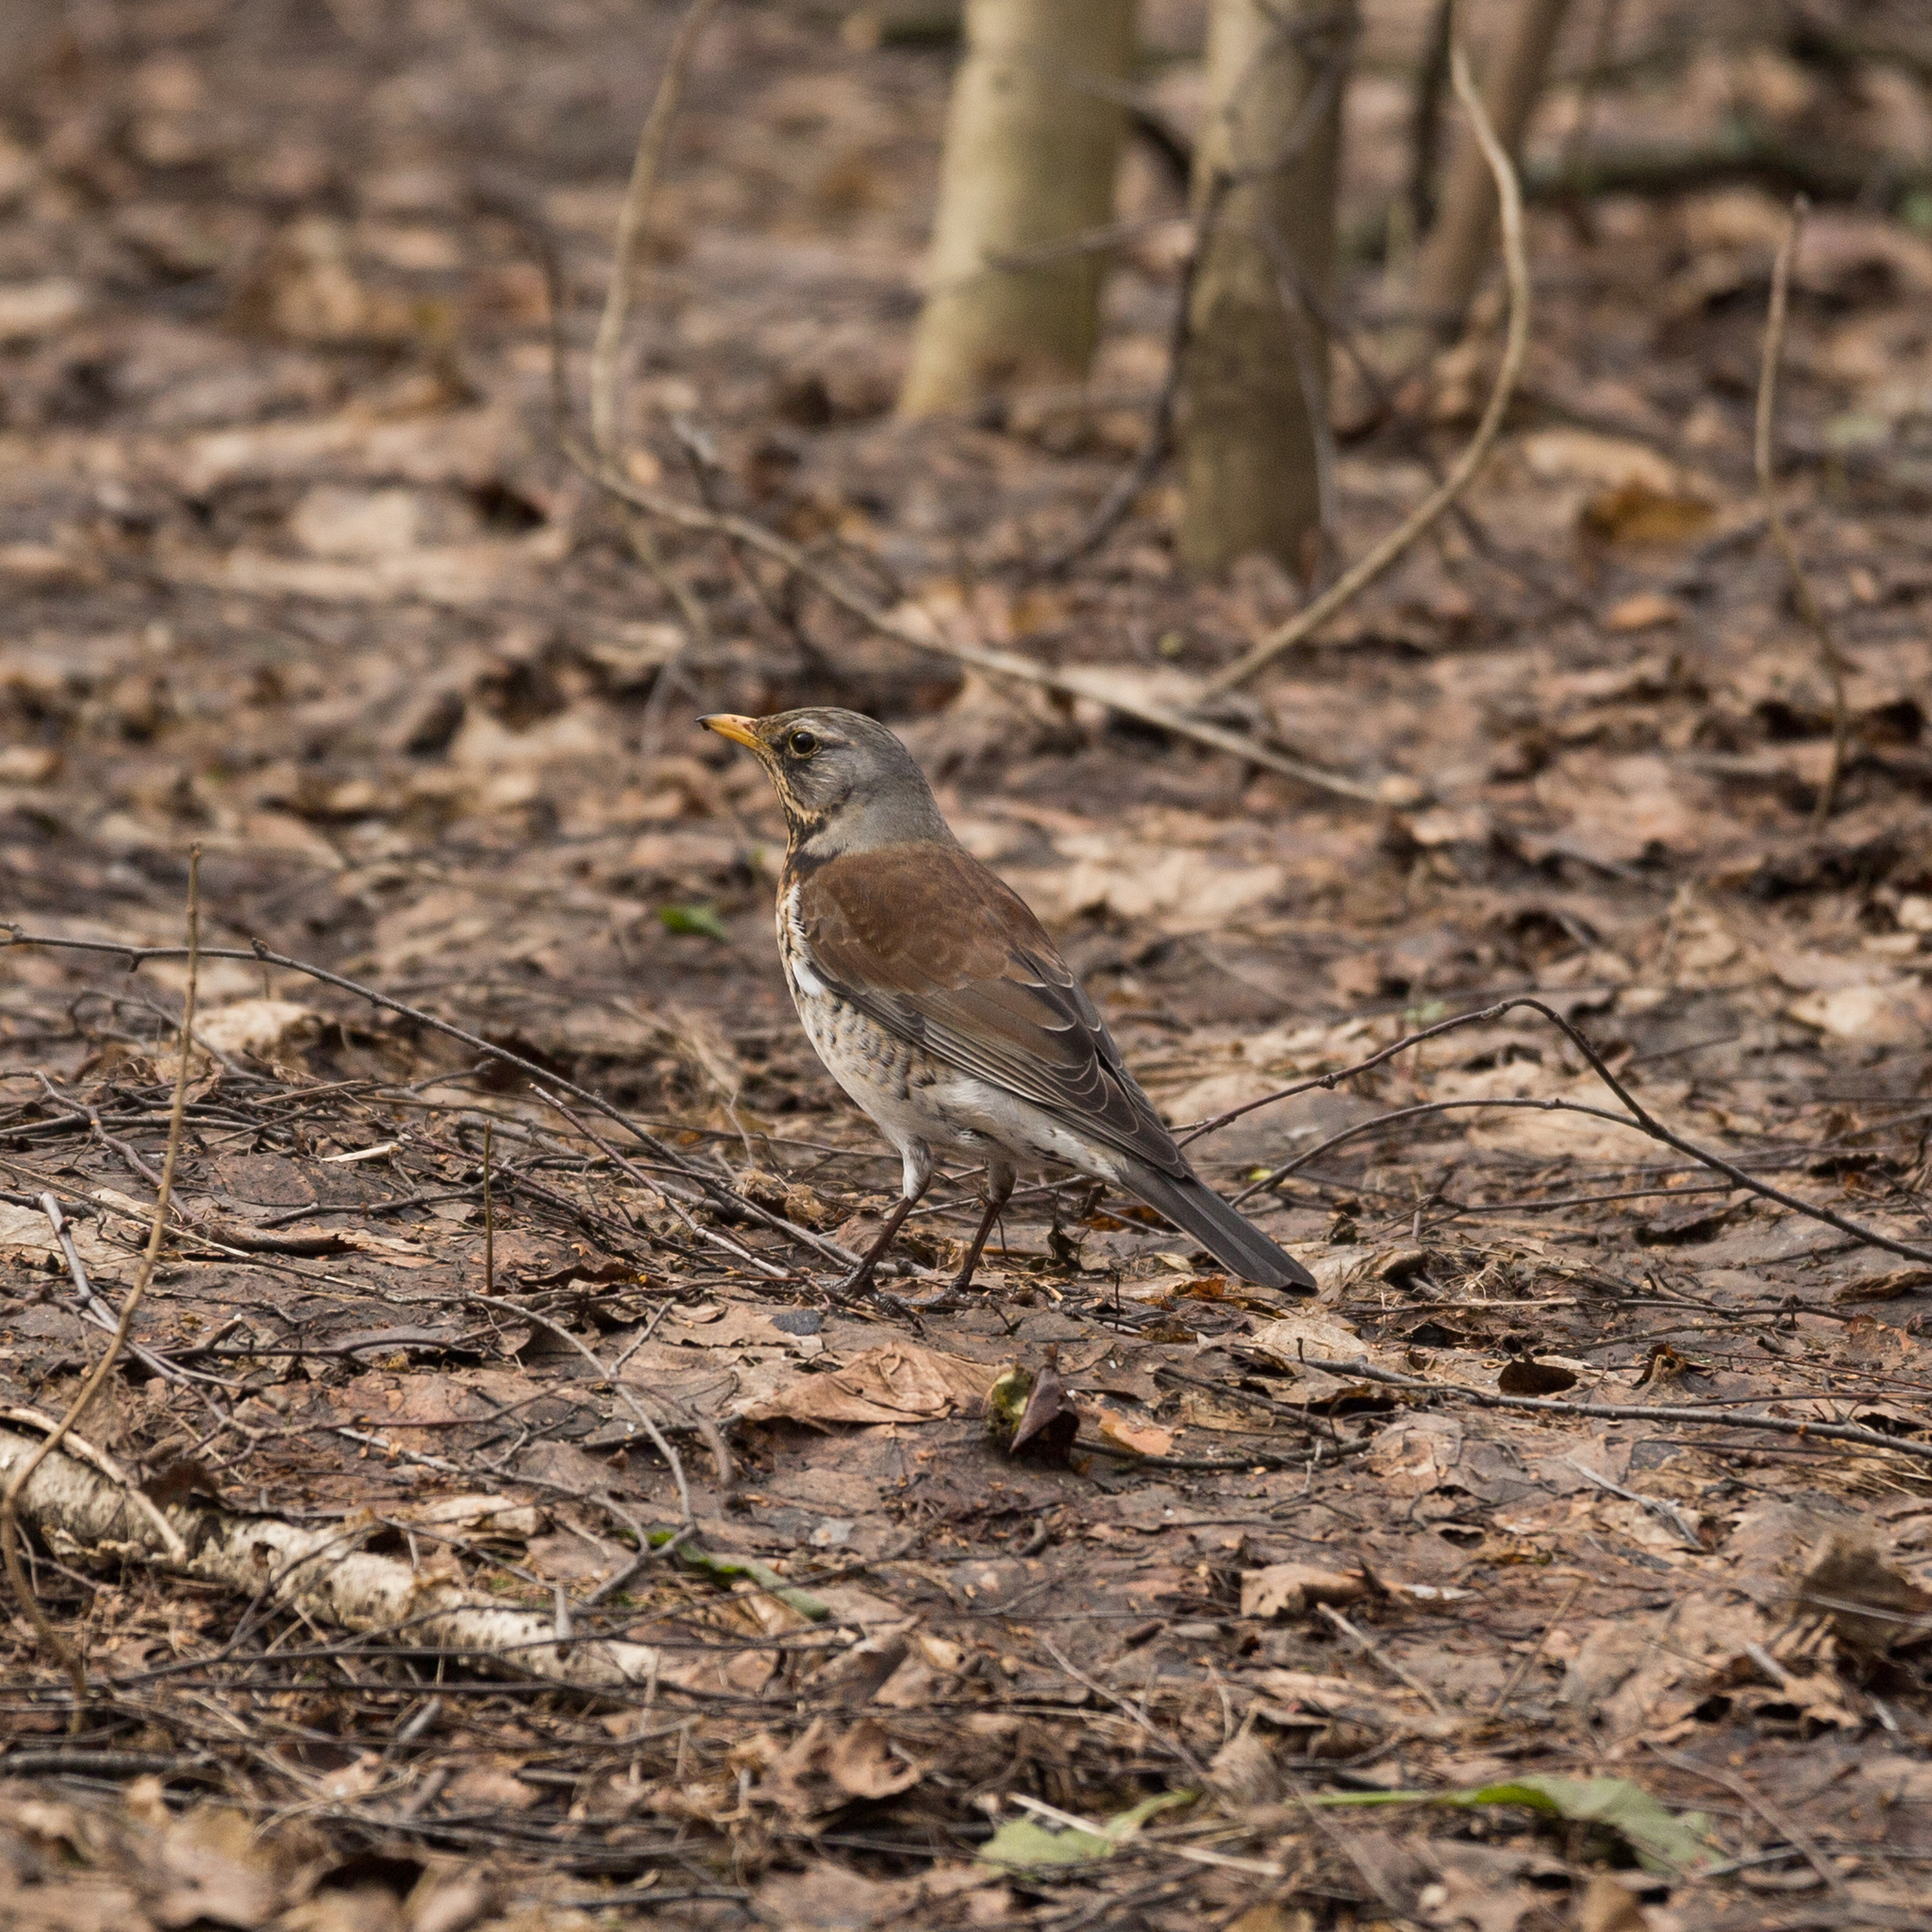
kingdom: Animalia
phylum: Chordata
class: Aves
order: Passeriformes
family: Turdidae
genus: Turdus
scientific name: Turdus pilaris
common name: Fieldfare
